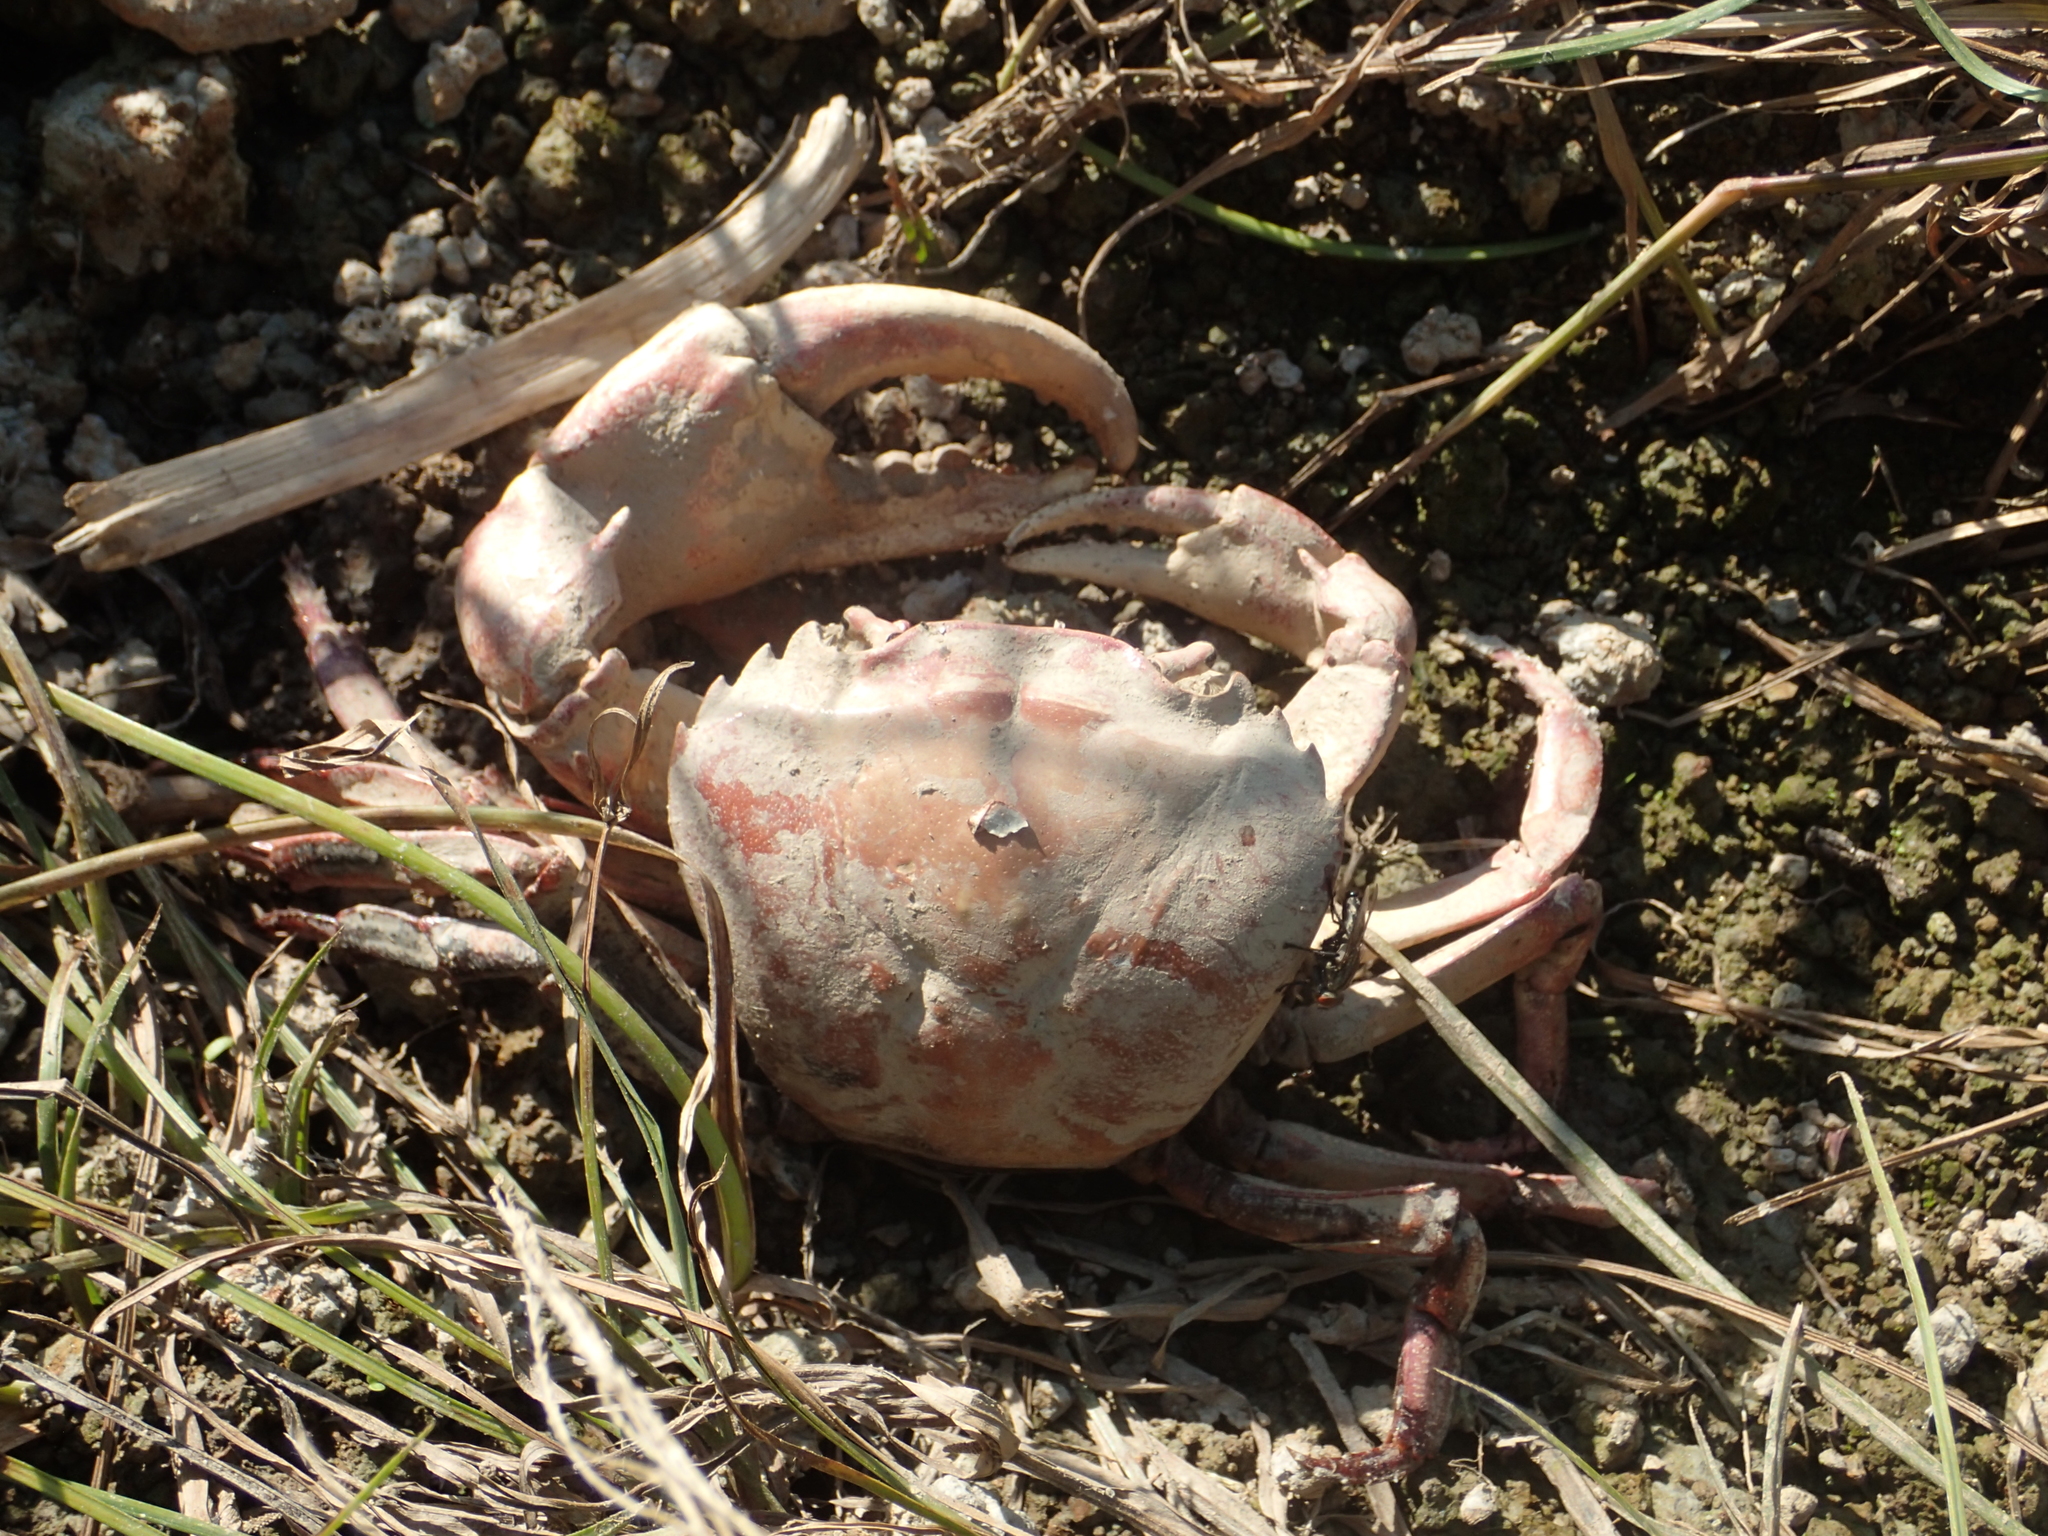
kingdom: Animalia
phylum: Arthropoda
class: Malacostraca
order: Decapoda
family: Gecarcinucidae
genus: Sayamia
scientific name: Sayamia germaini
